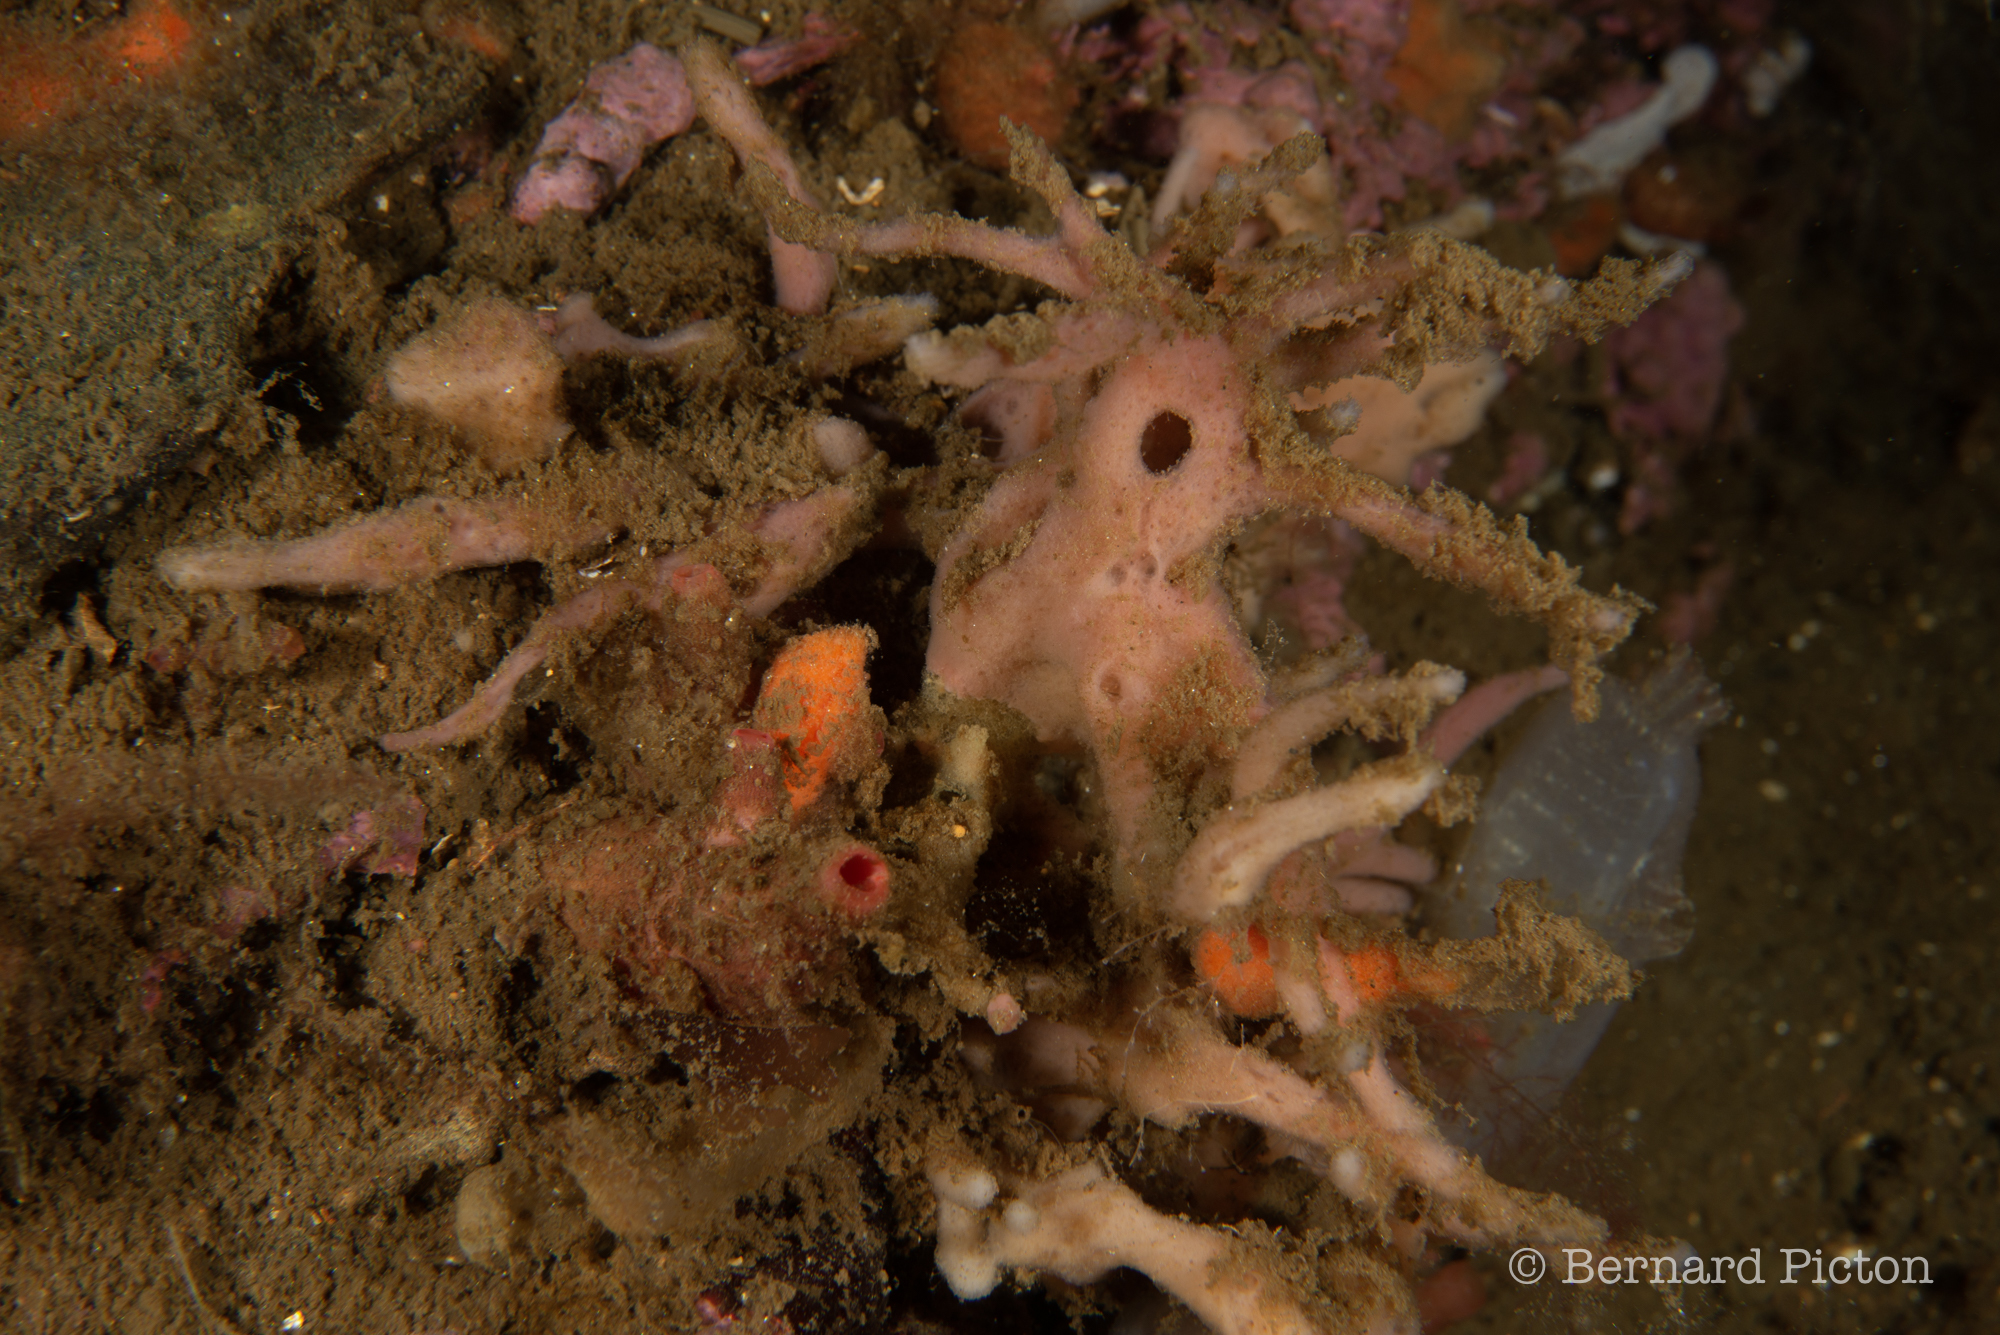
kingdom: Animalia
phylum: Porifera
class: Demospongiae
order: Haplosclerida
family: Chalinidae
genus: Haliclona
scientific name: Haliclona fistulosa
